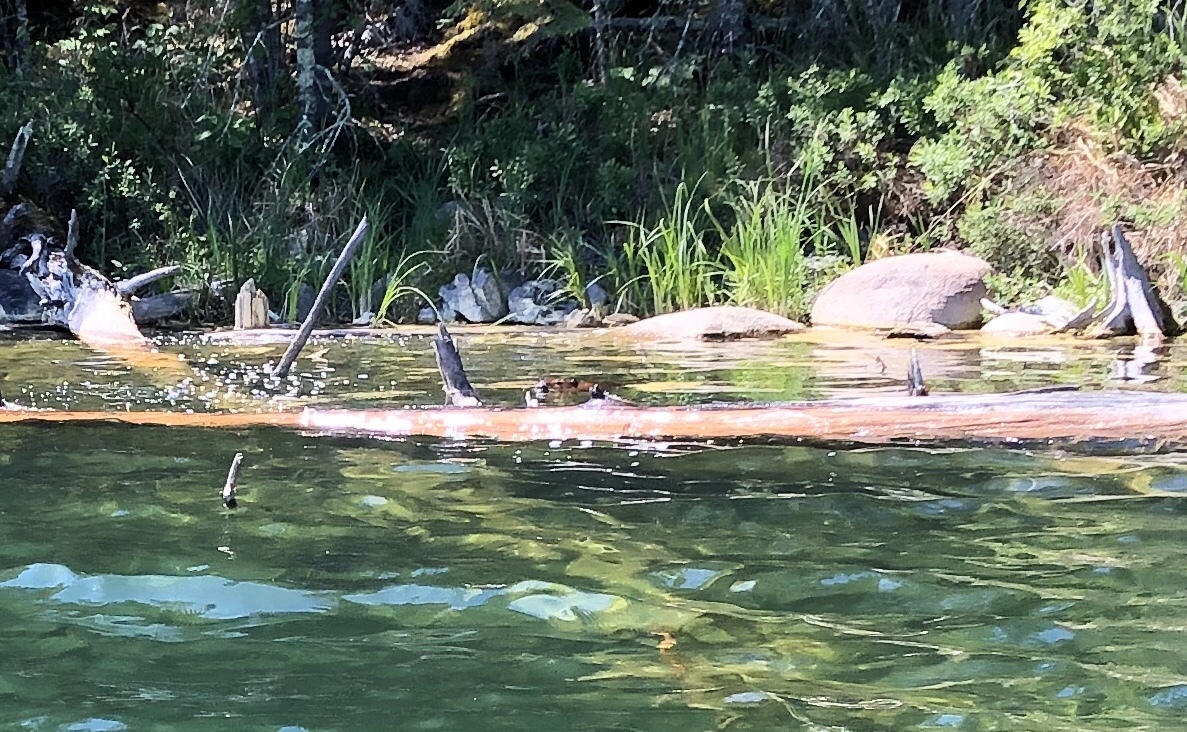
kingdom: Animalia
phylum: Chordata
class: Mammalia
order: Rodentia
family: Castoridae
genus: Castor
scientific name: Castor canadensis
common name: American beaver
